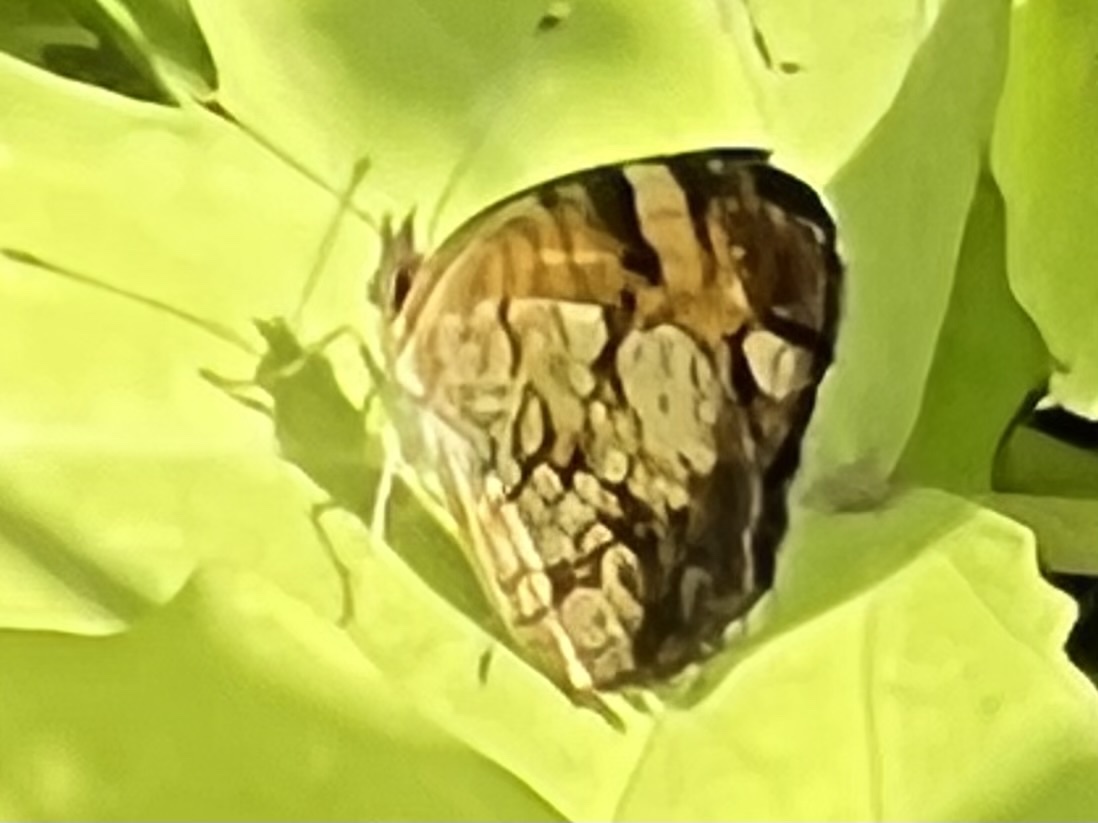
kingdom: Animalia
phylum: Arthropoda
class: Insecta
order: Lepidoptera
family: Nymphalidae
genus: Phyciodes
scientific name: Phyciodes tharos
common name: Pearl crescent
